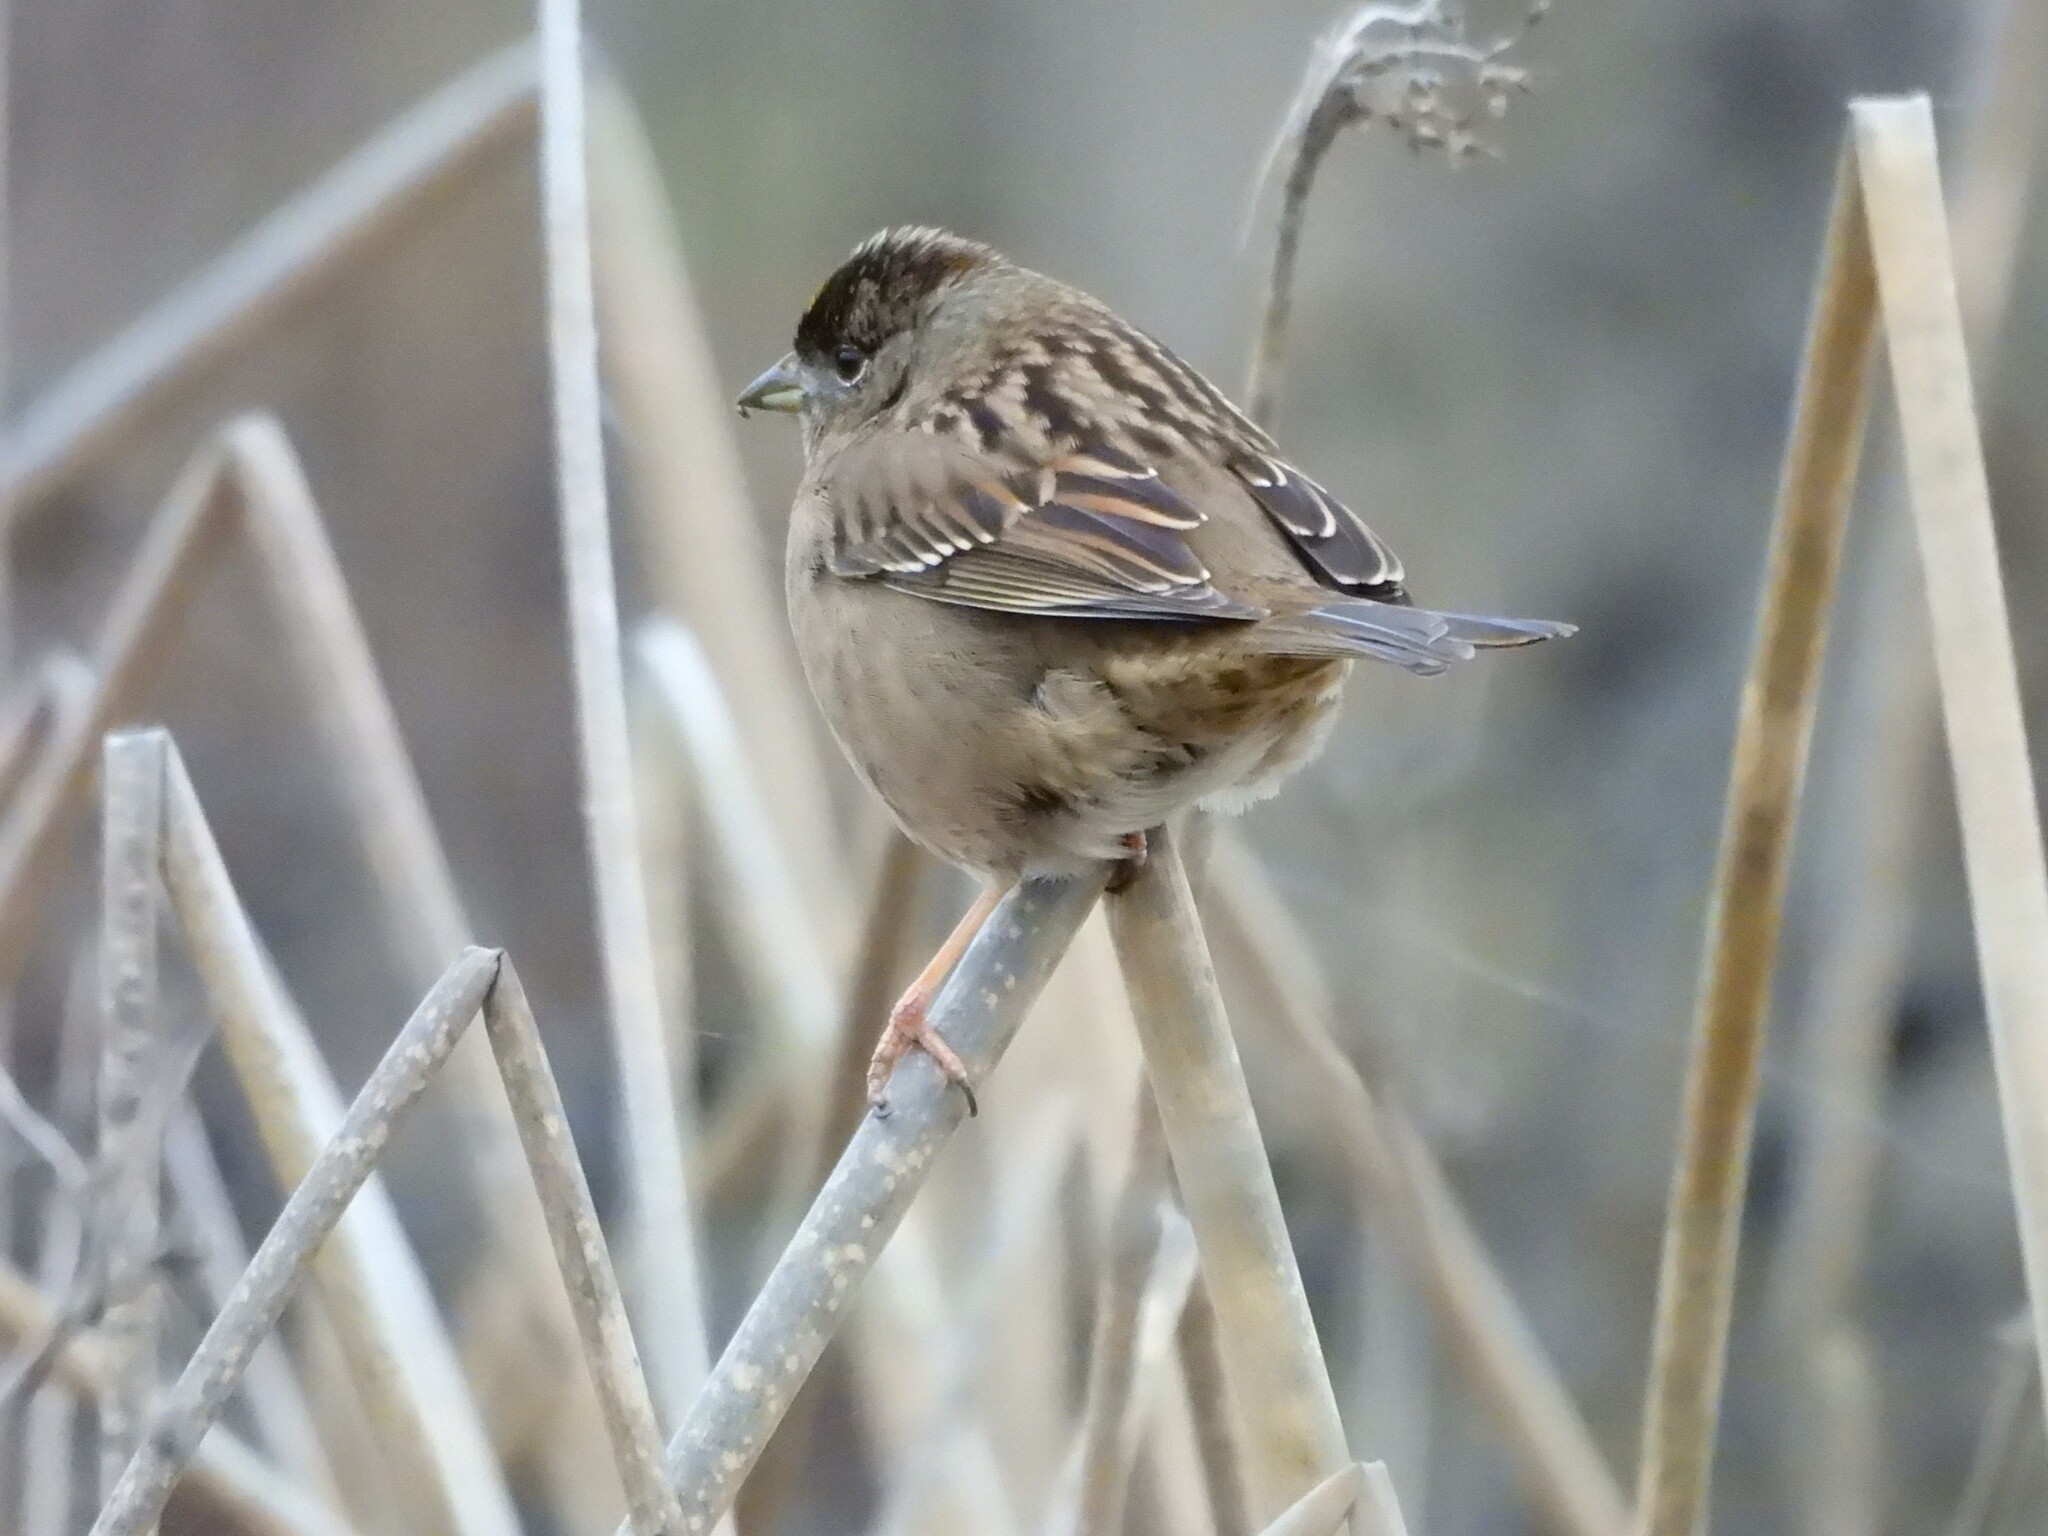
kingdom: Animalia
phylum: Chordata
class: Aves
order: Passeriformes
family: Passerellidae
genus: Zonotrichia
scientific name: Zonotrichia atricapilla
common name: Golden-crowned sparrow
